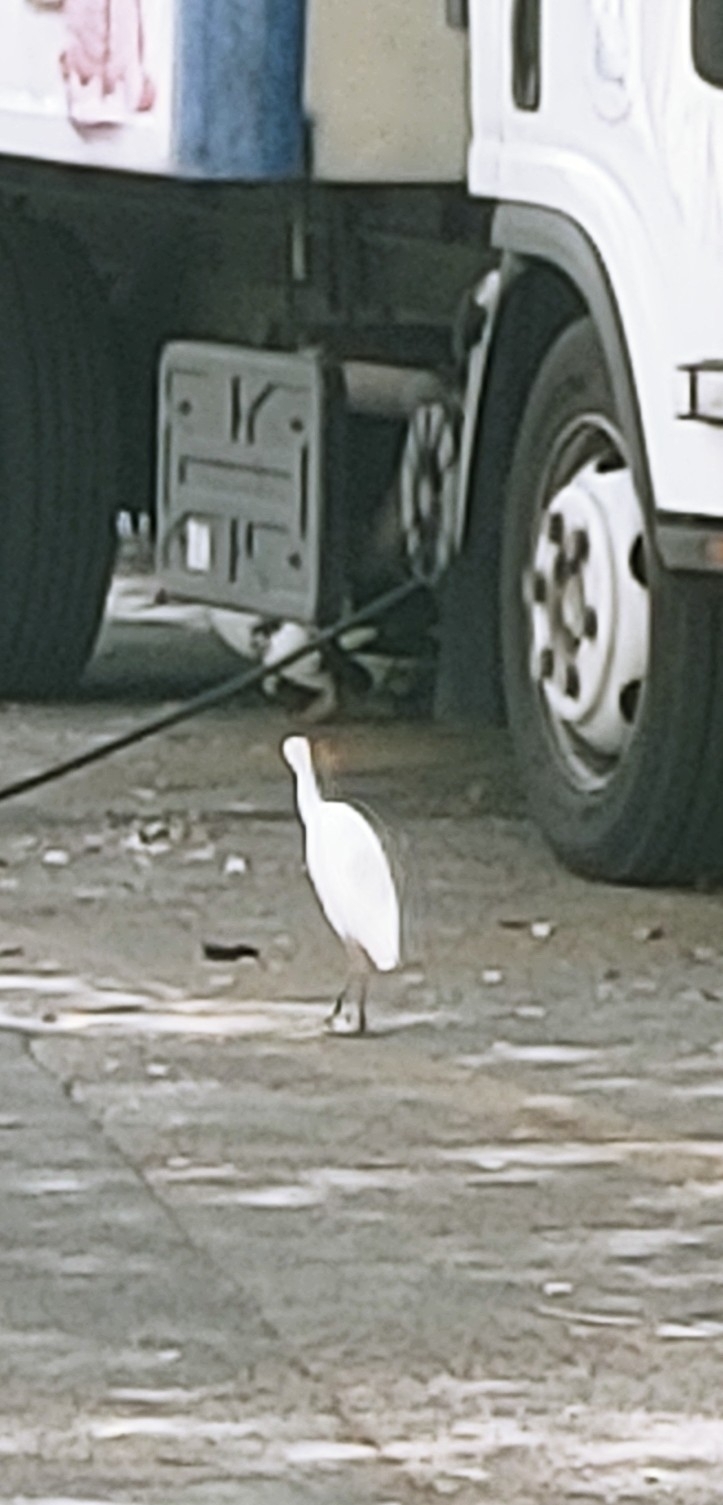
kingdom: Animalia
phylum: Chordata
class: Aves
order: Pelecaniformes
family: Ardeidae
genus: Bubulcus
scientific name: Bubulcus ibis
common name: Cattle egret
